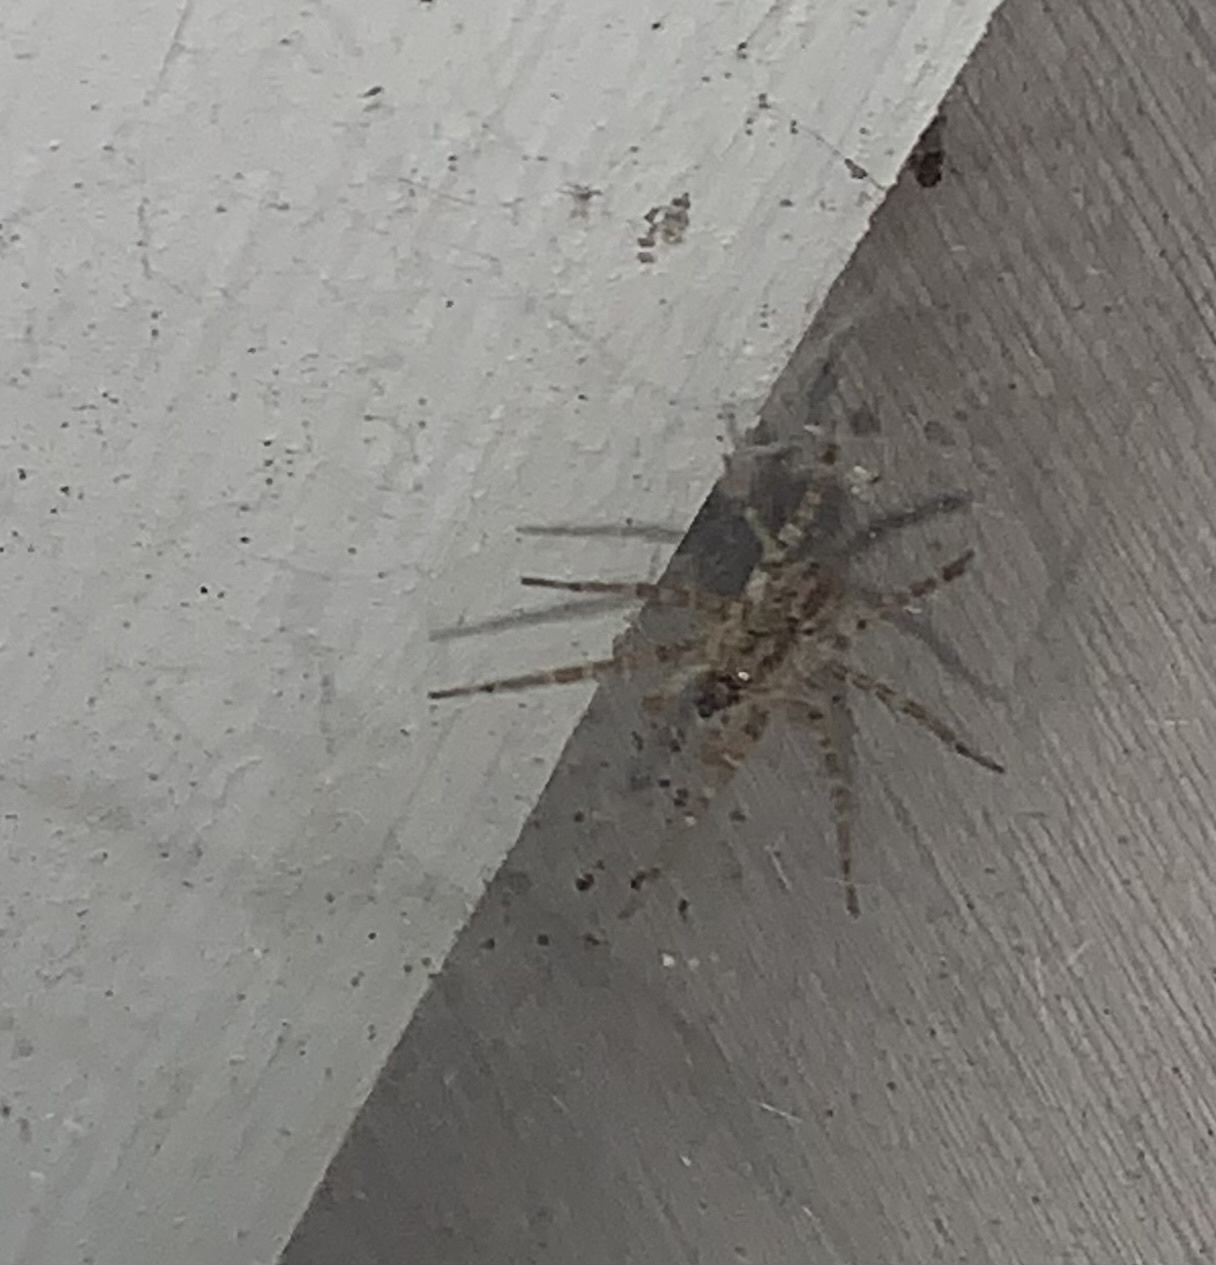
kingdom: Animalia
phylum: Arthropoda
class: Arachnida
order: Araneae
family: Agelenidae
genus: Barronopsis
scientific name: Barronopsis texana
